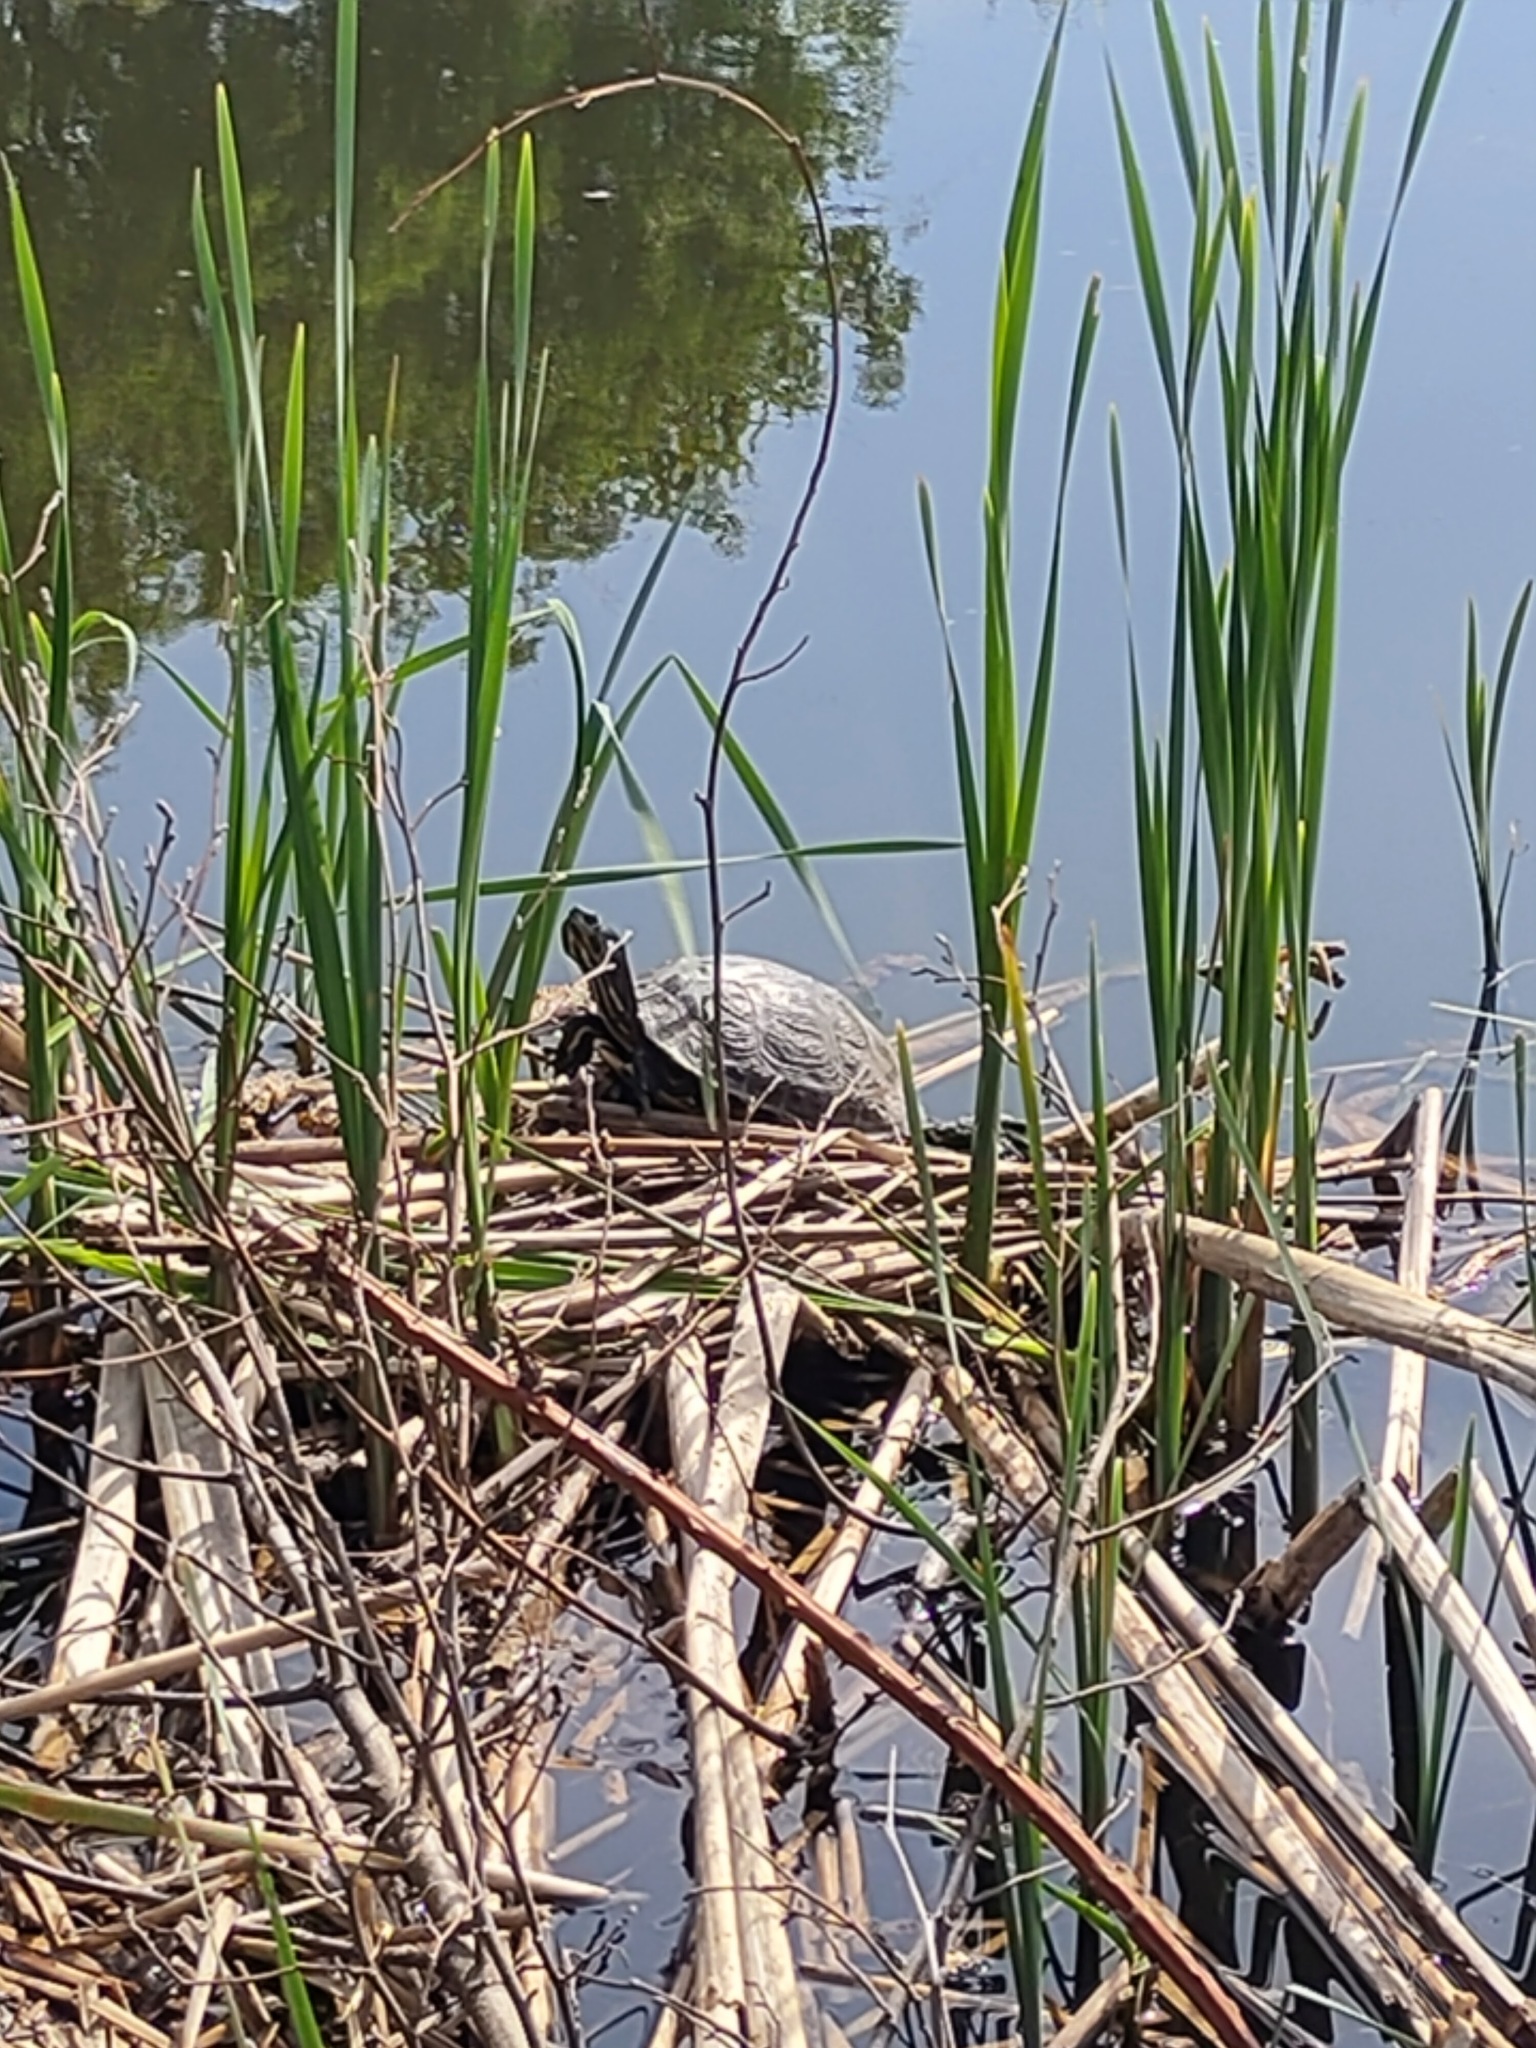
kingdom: Animalia
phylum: Chordata
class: Testudines
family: Emydidae
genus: Trachemys
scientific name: Trachemys scripta
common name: Slider
